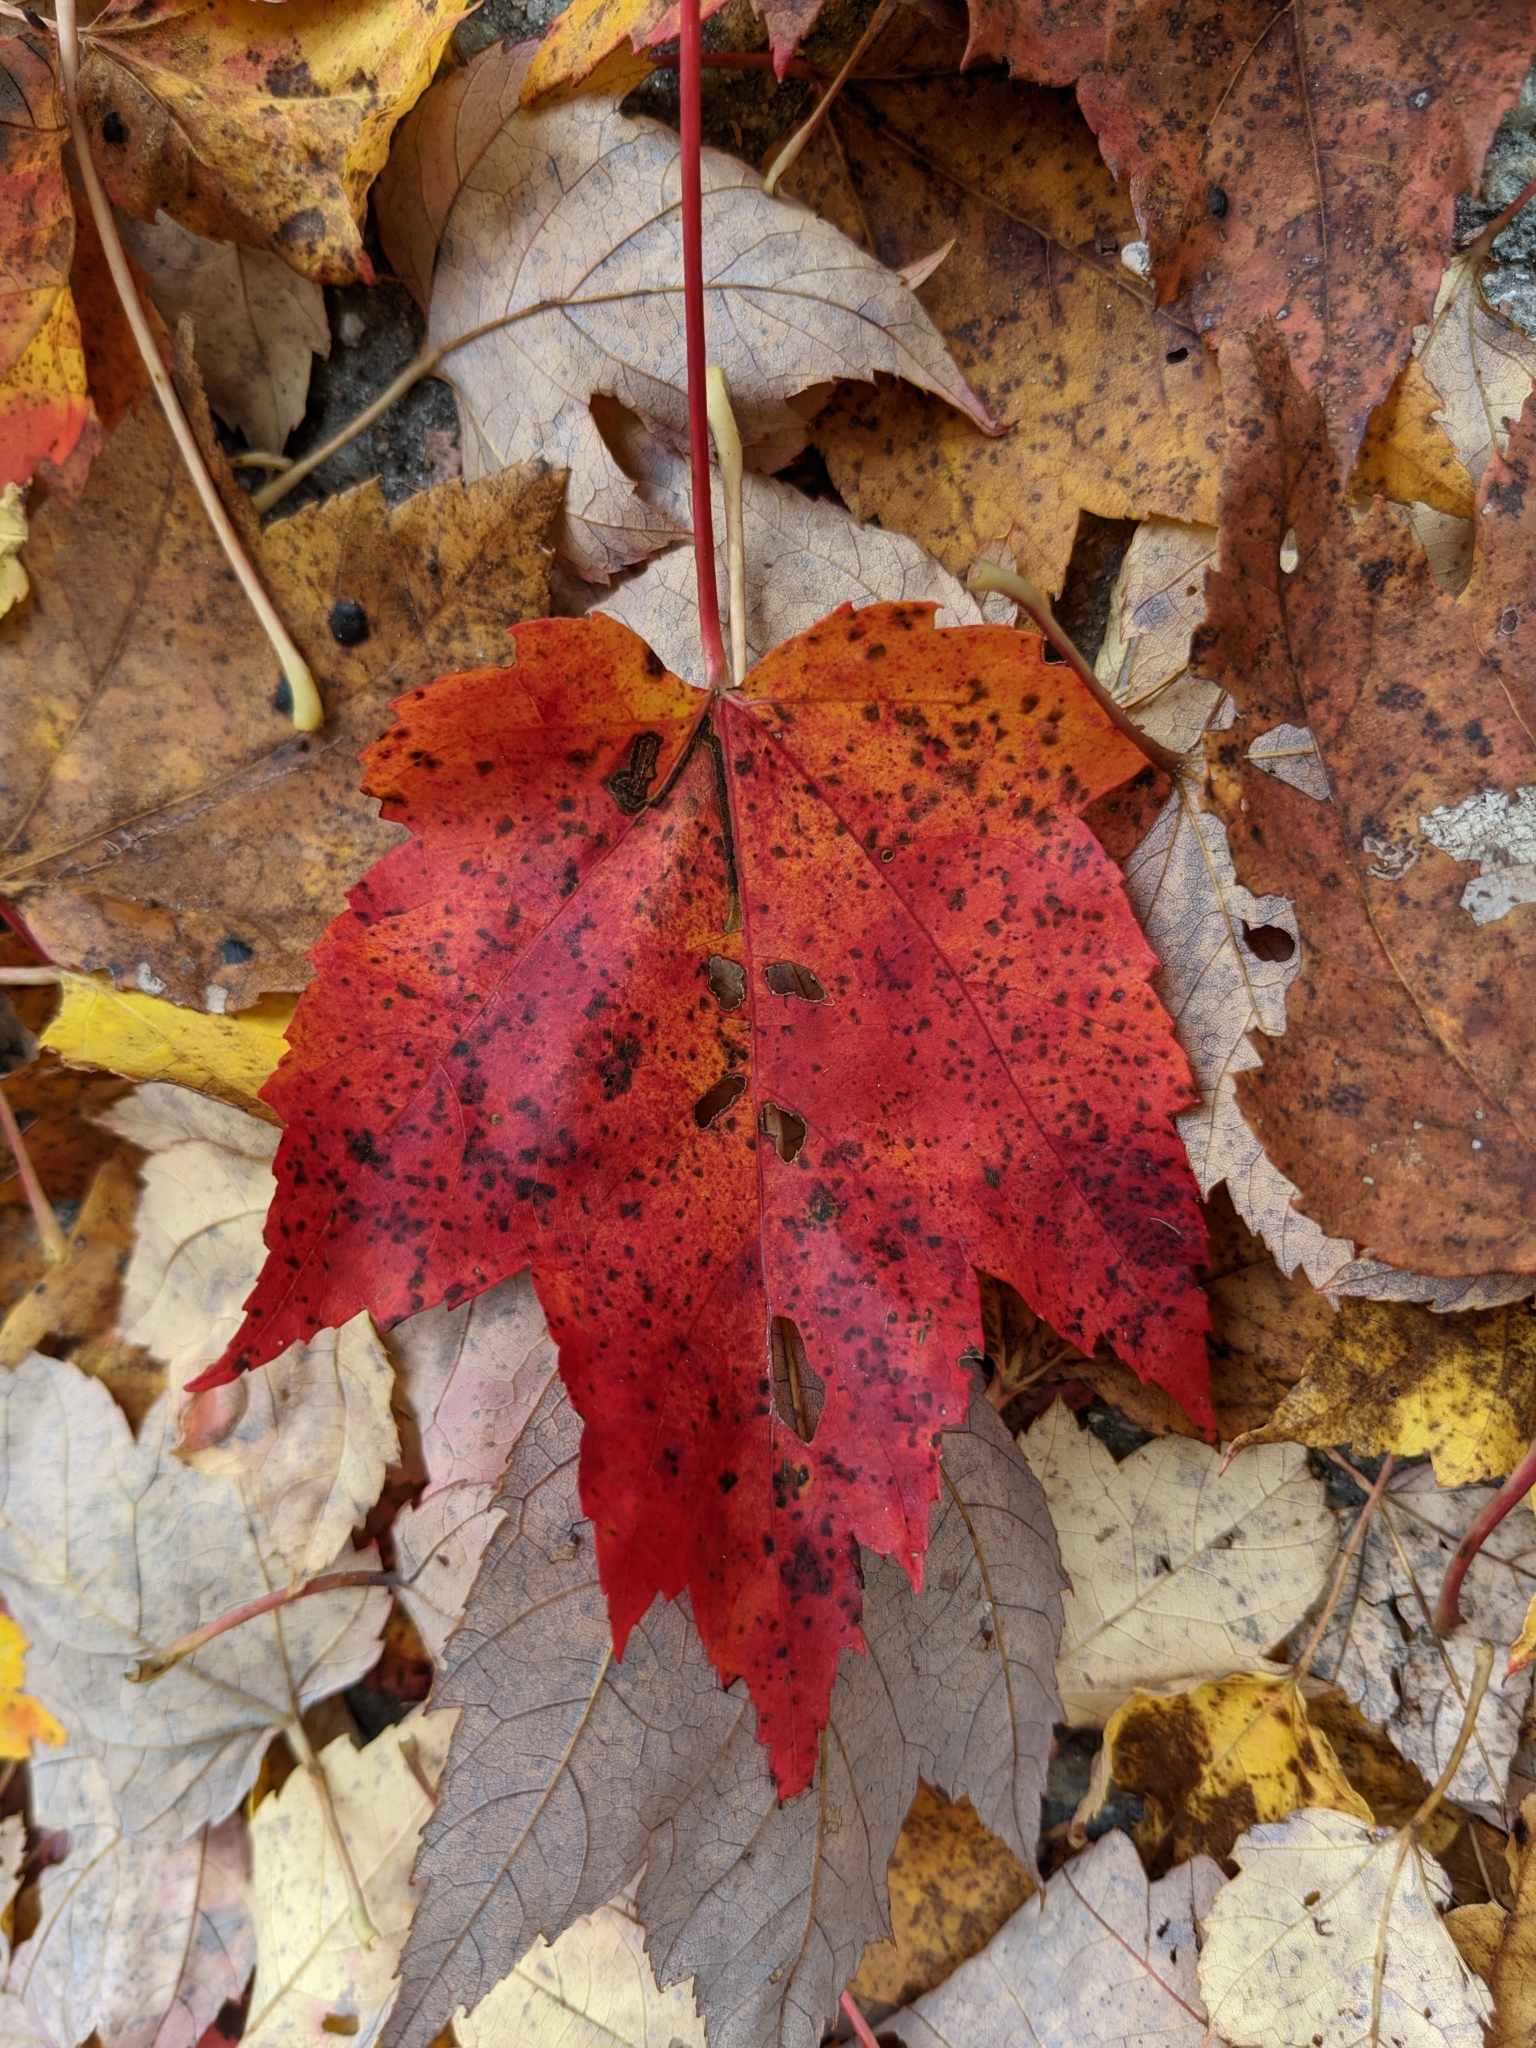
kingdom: Plantae
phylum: Tracheophyta
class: Magnoliopsida
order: Sapindales
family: Sapindaceae
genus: Acer
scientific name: Acer rubrum
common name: Red maple
